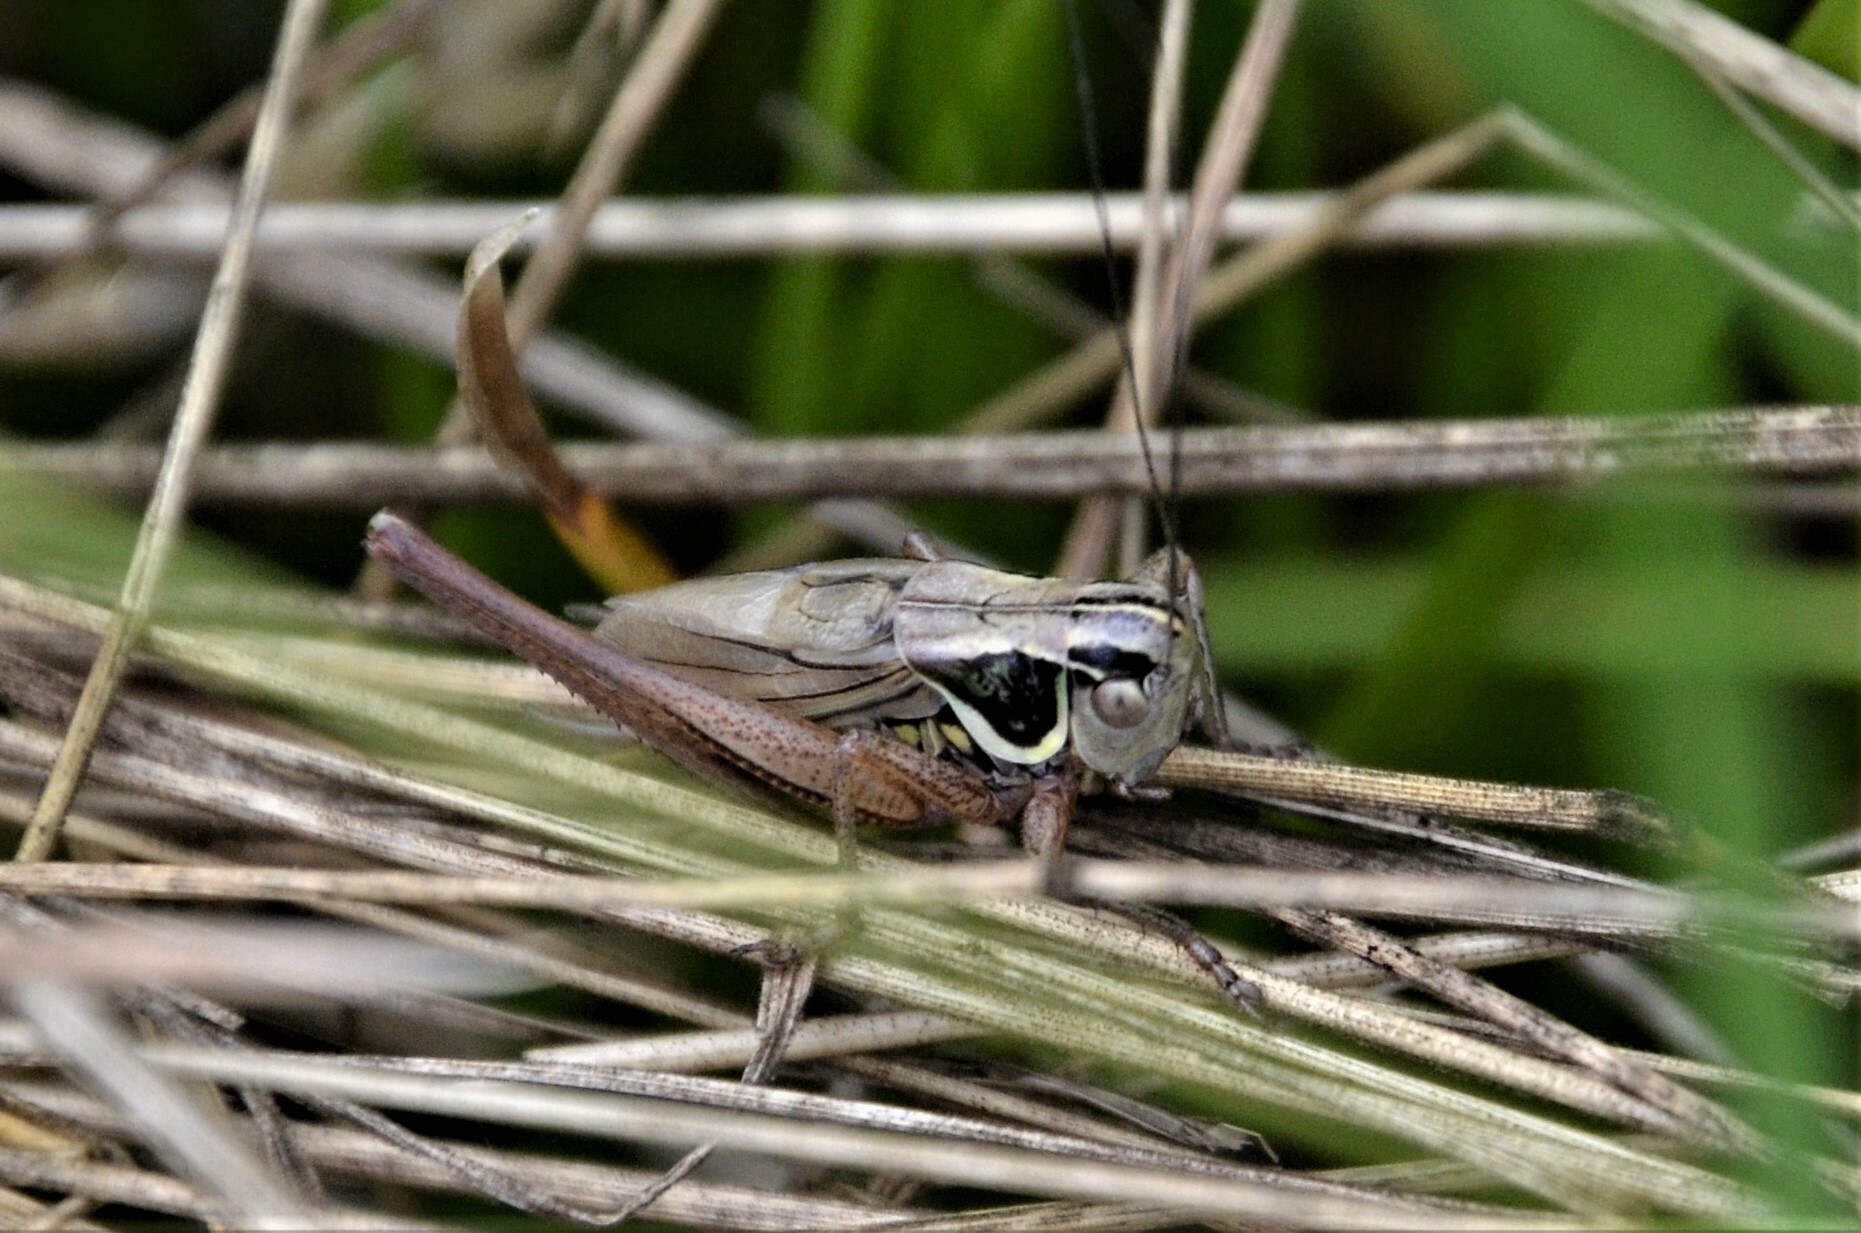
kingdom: Animalia
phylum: Arthropoda
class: Insecta
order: Orthoptera
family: Tettigoniidae
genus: Roeseliana
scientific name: Roeseliana roeselii
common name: Roesel's bush cricket
